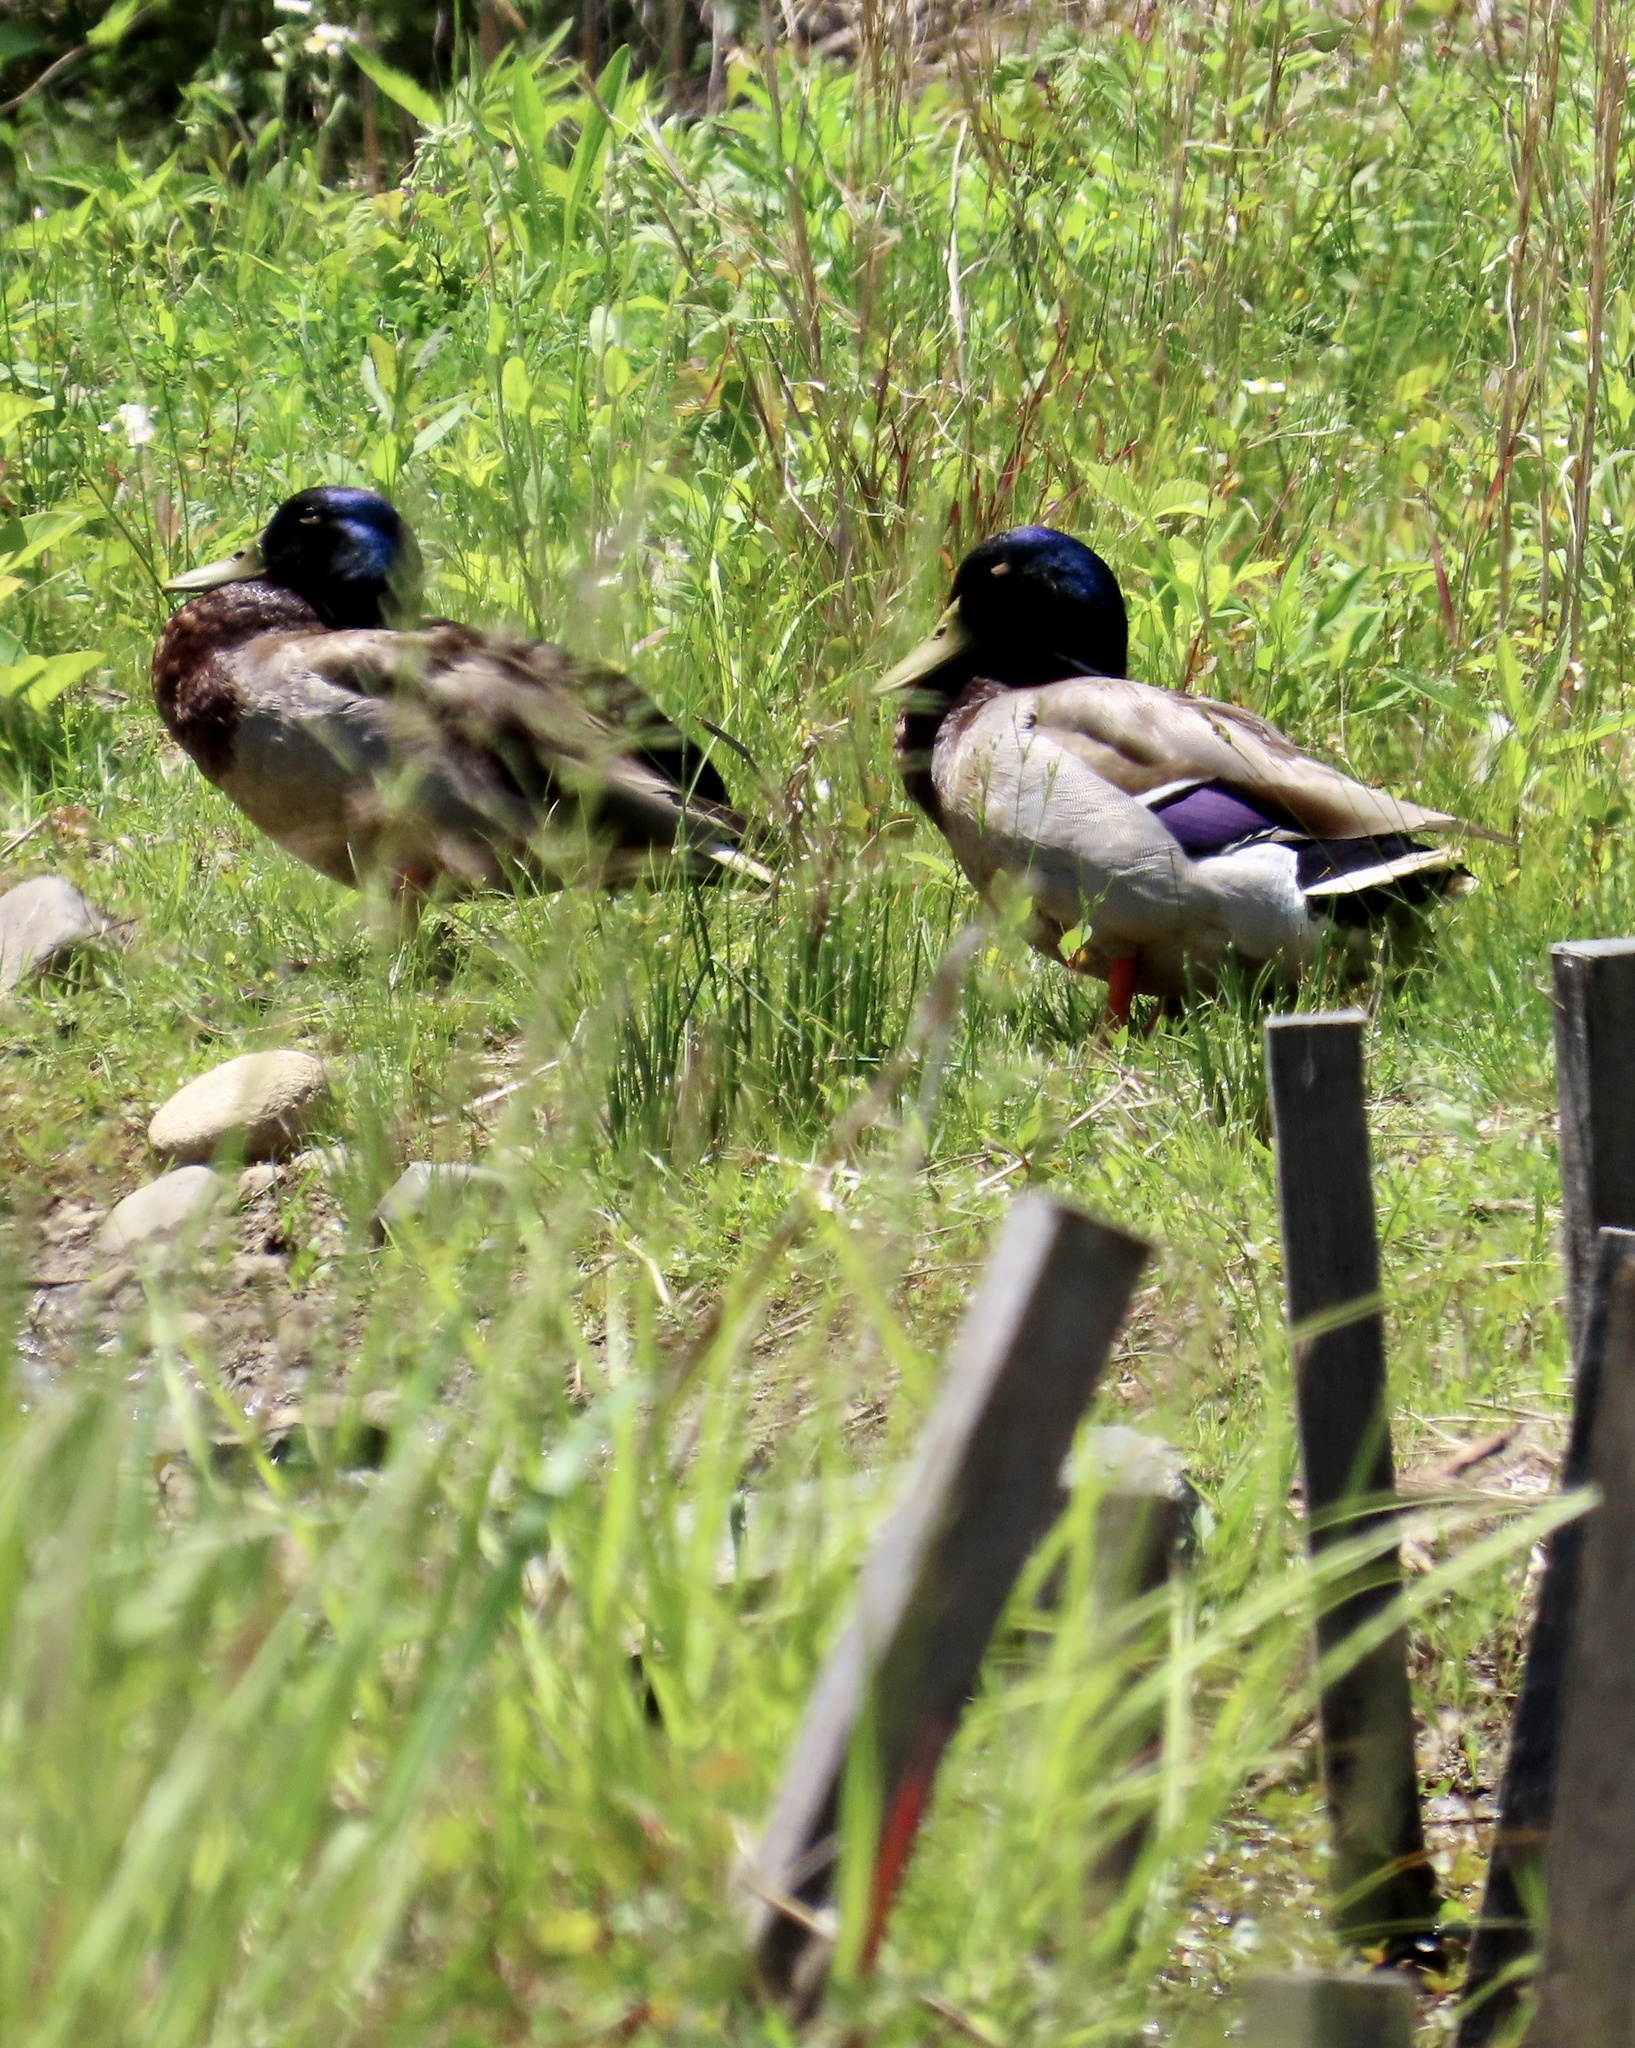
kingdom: Animalia
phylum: Chordata
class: Aves
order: Anseriformes
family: Anatidae
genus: Anas
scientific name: Anas platyrhynchos
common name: Mallard
